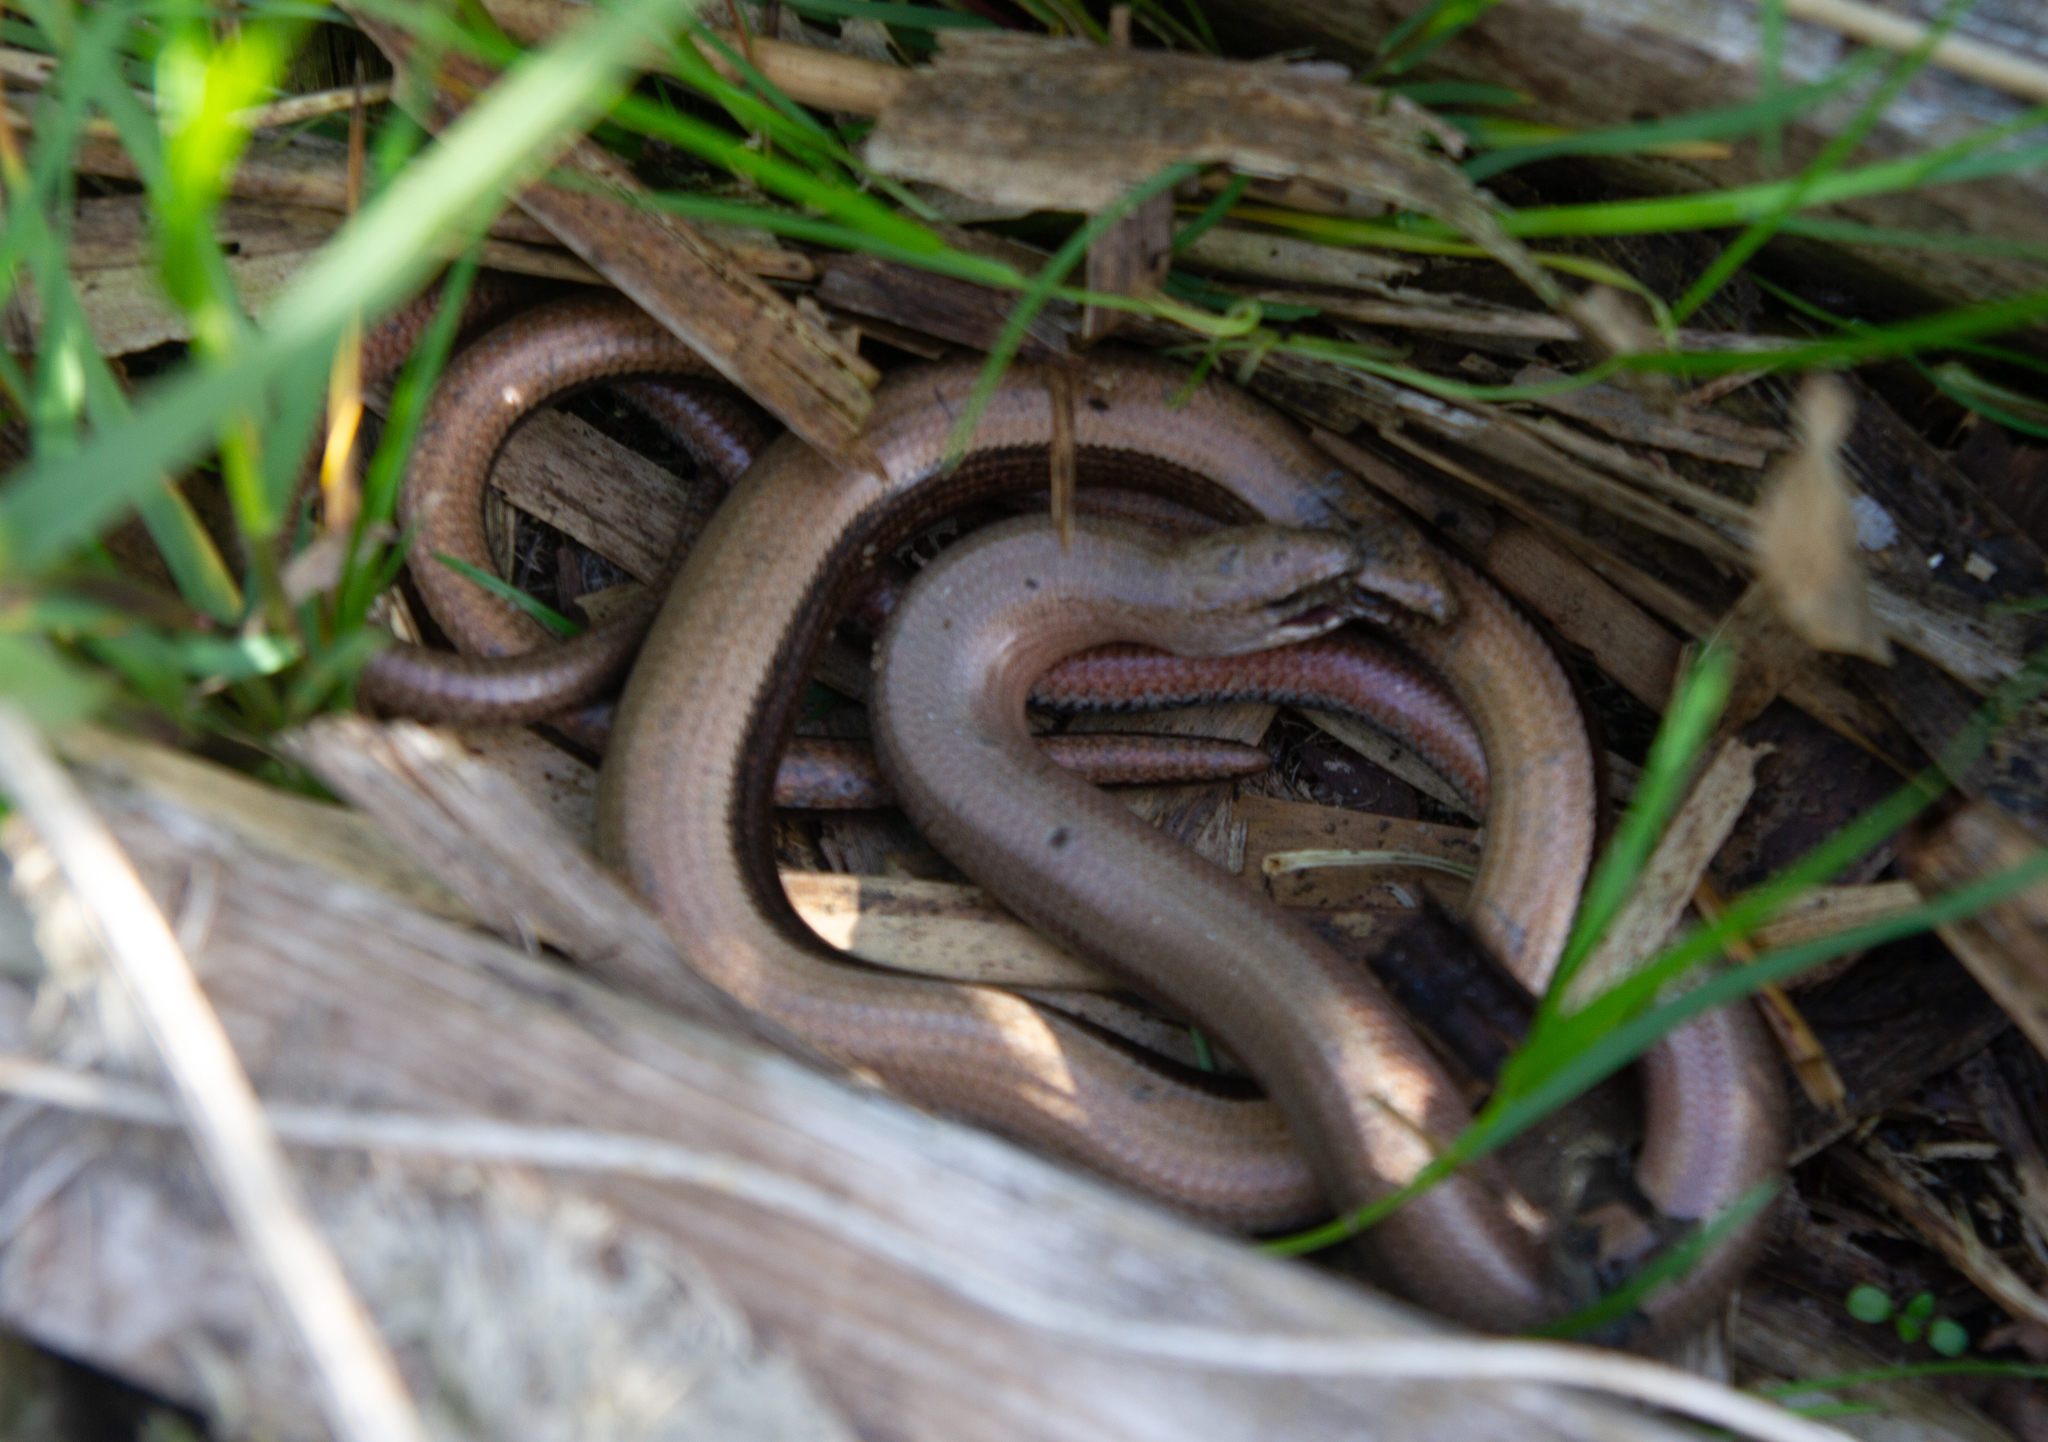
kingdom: Animalia
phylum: Chordata
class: Squamata
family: Anguidae
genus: Anguis
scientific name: Anguis fragilis
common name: Slow worm
